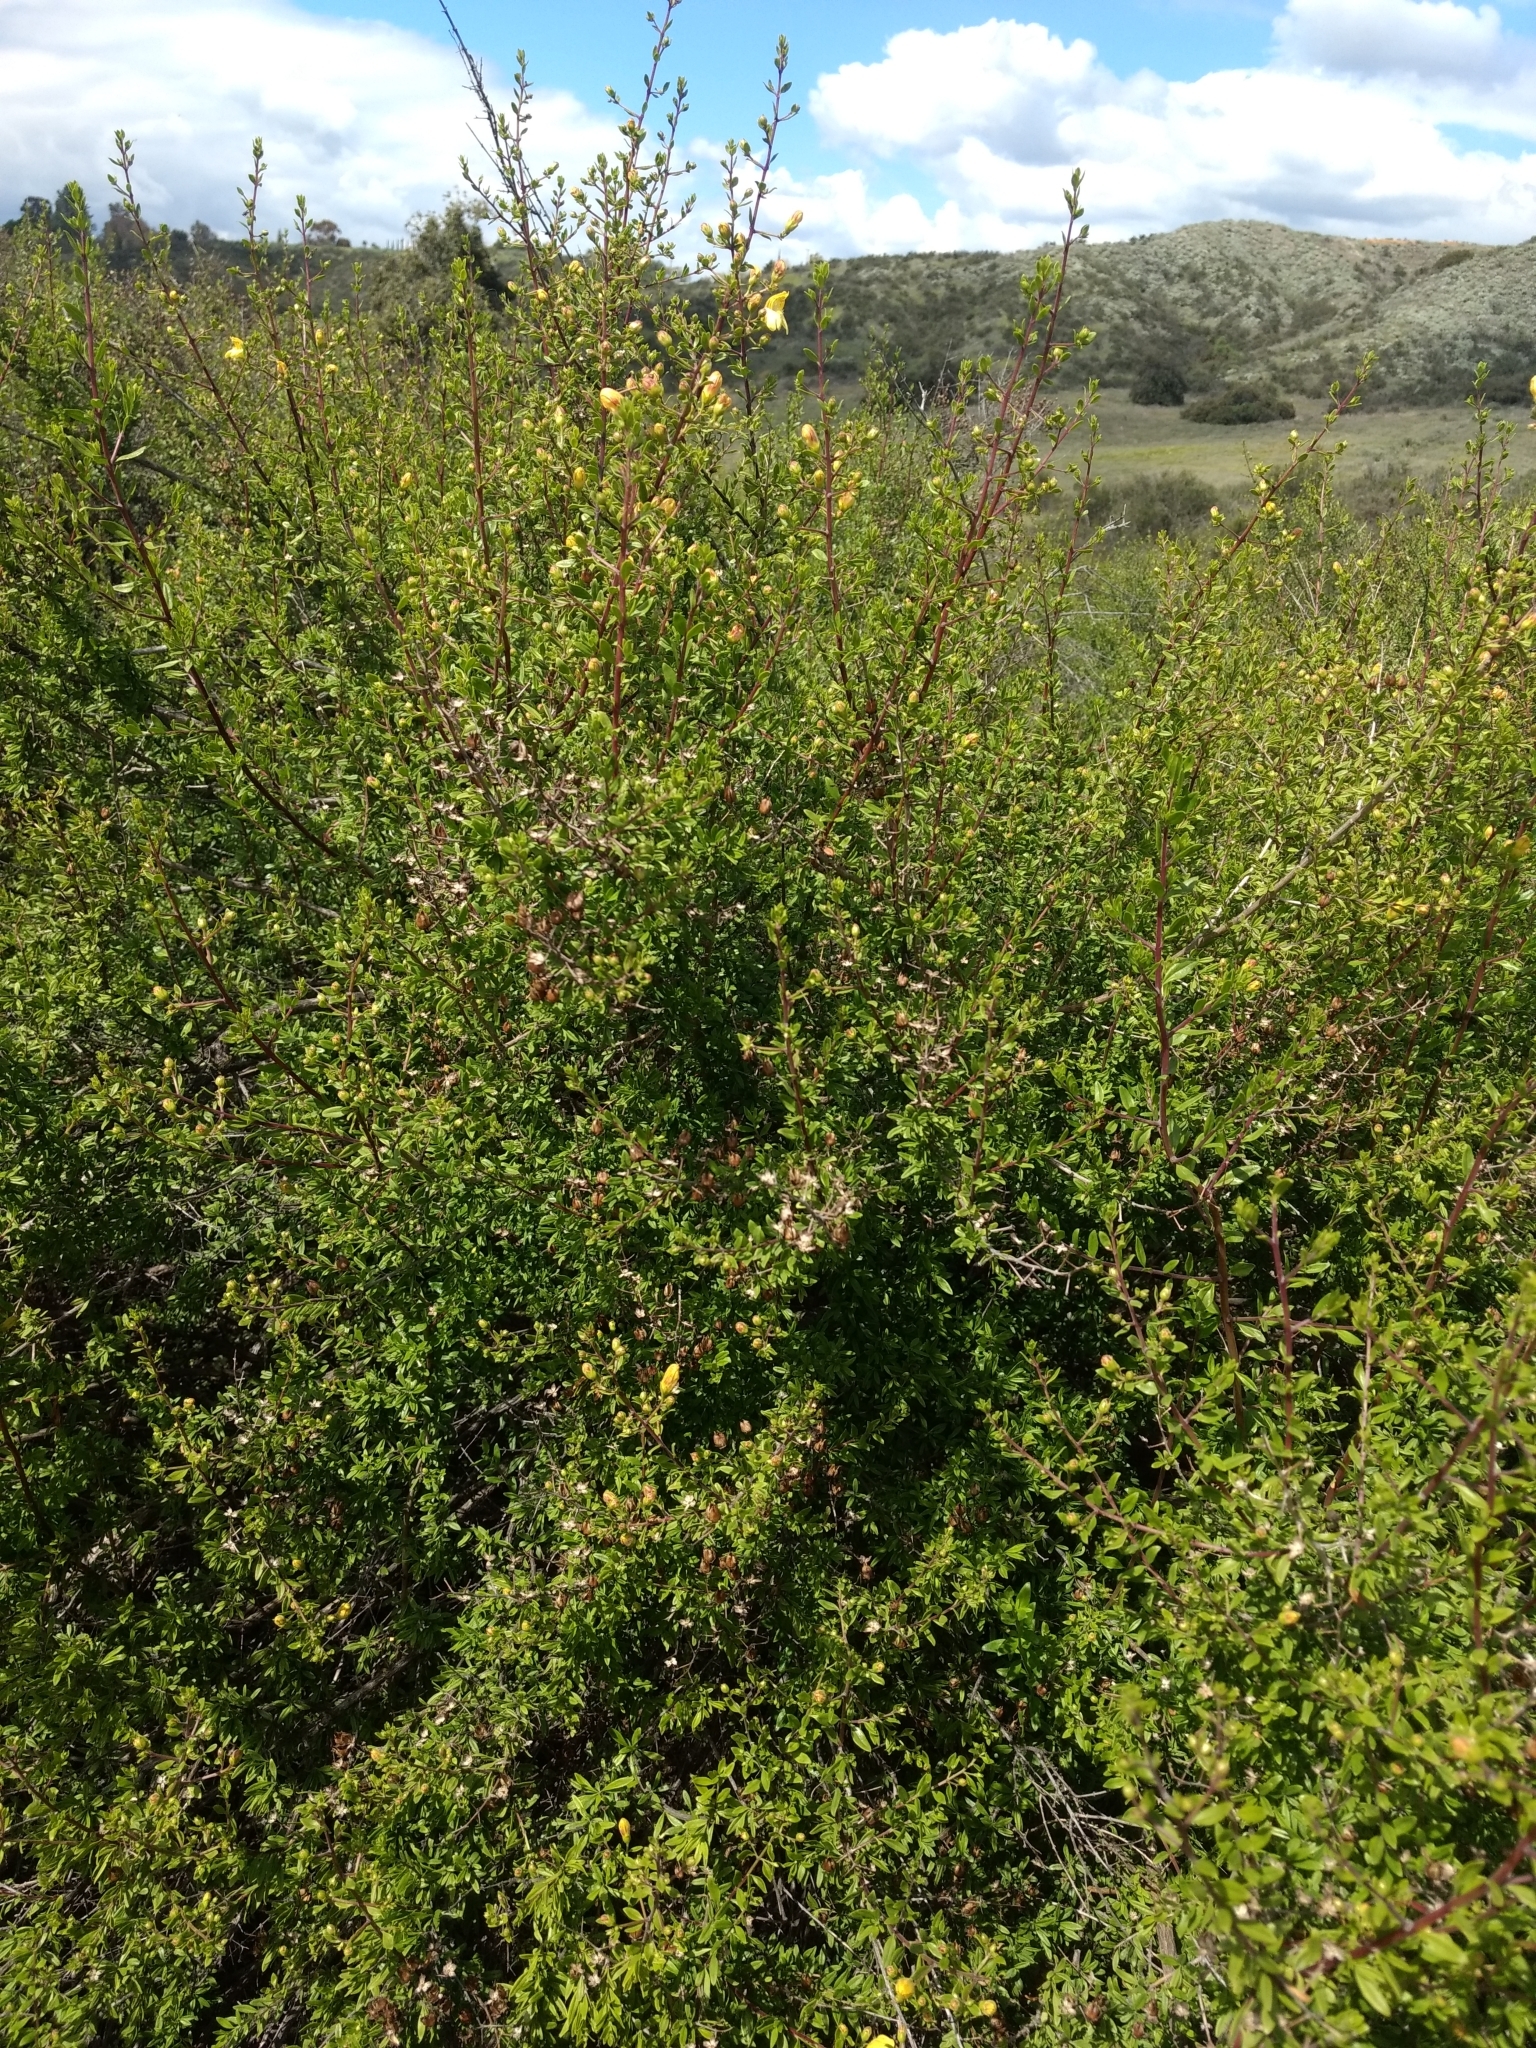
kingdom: Plantae
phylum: Tracheophyta
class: Magnoliopsida
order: Lamiales
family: Plantaginaceae
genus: Keckiella
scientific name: Keckiella antirrhinoides
